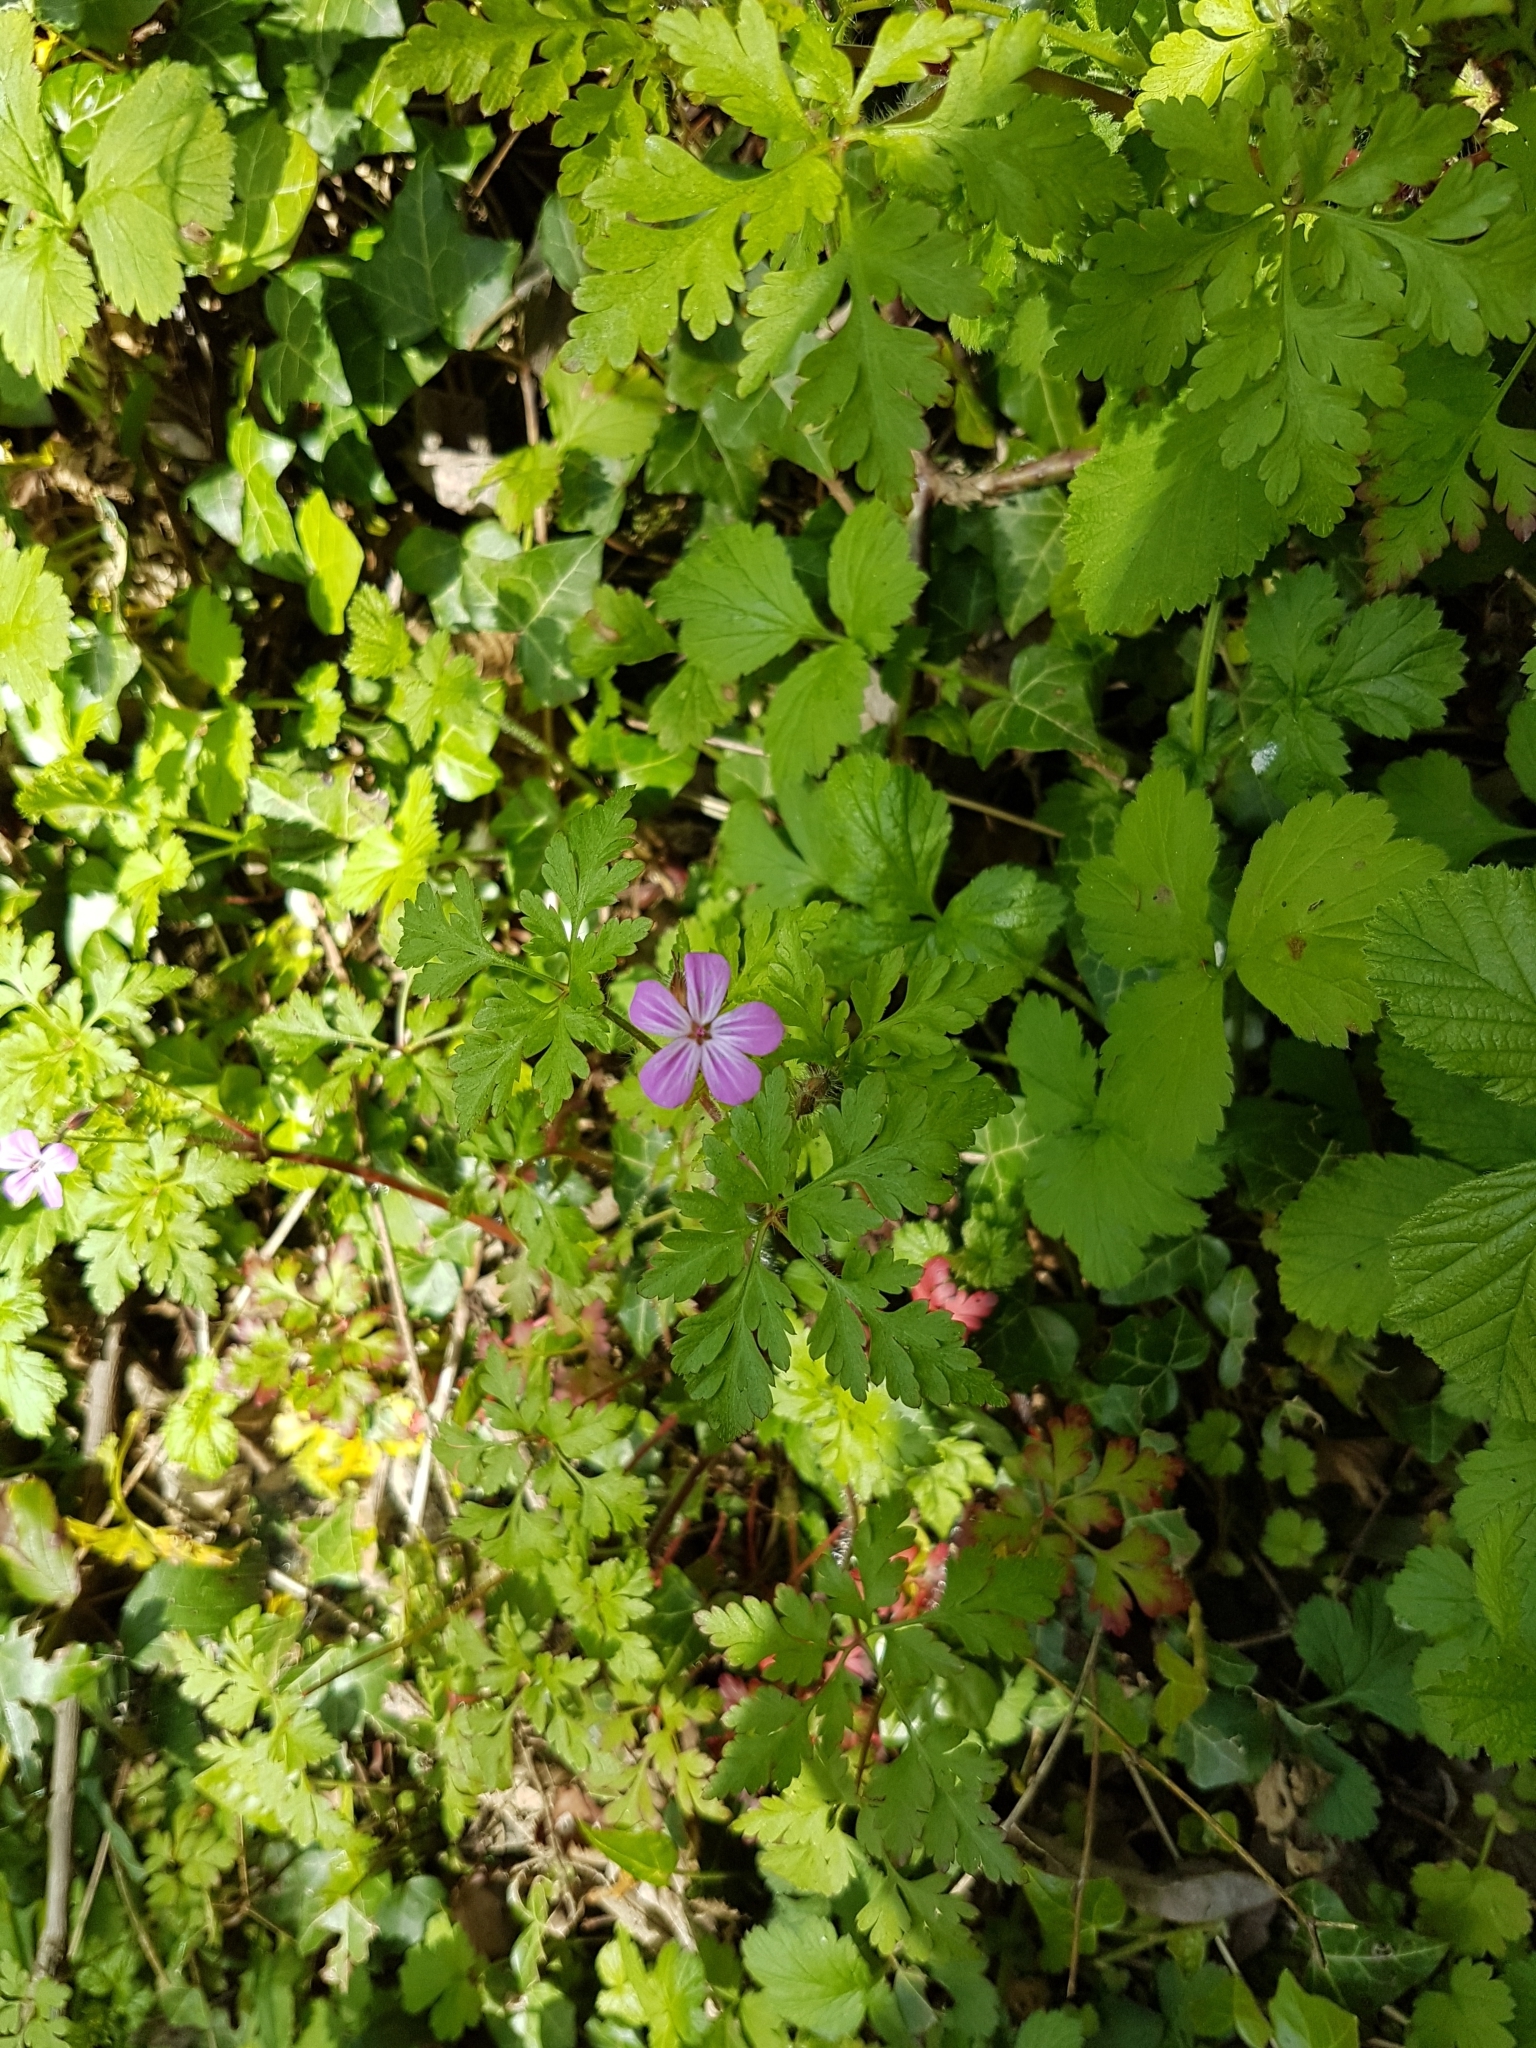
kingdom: Plantae
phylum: Tracheophyta
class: Magnoliopsida
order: Geraniales
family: Geraniaceae
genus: Geranium
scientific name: Geranium robertianum
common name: Herb-robert
